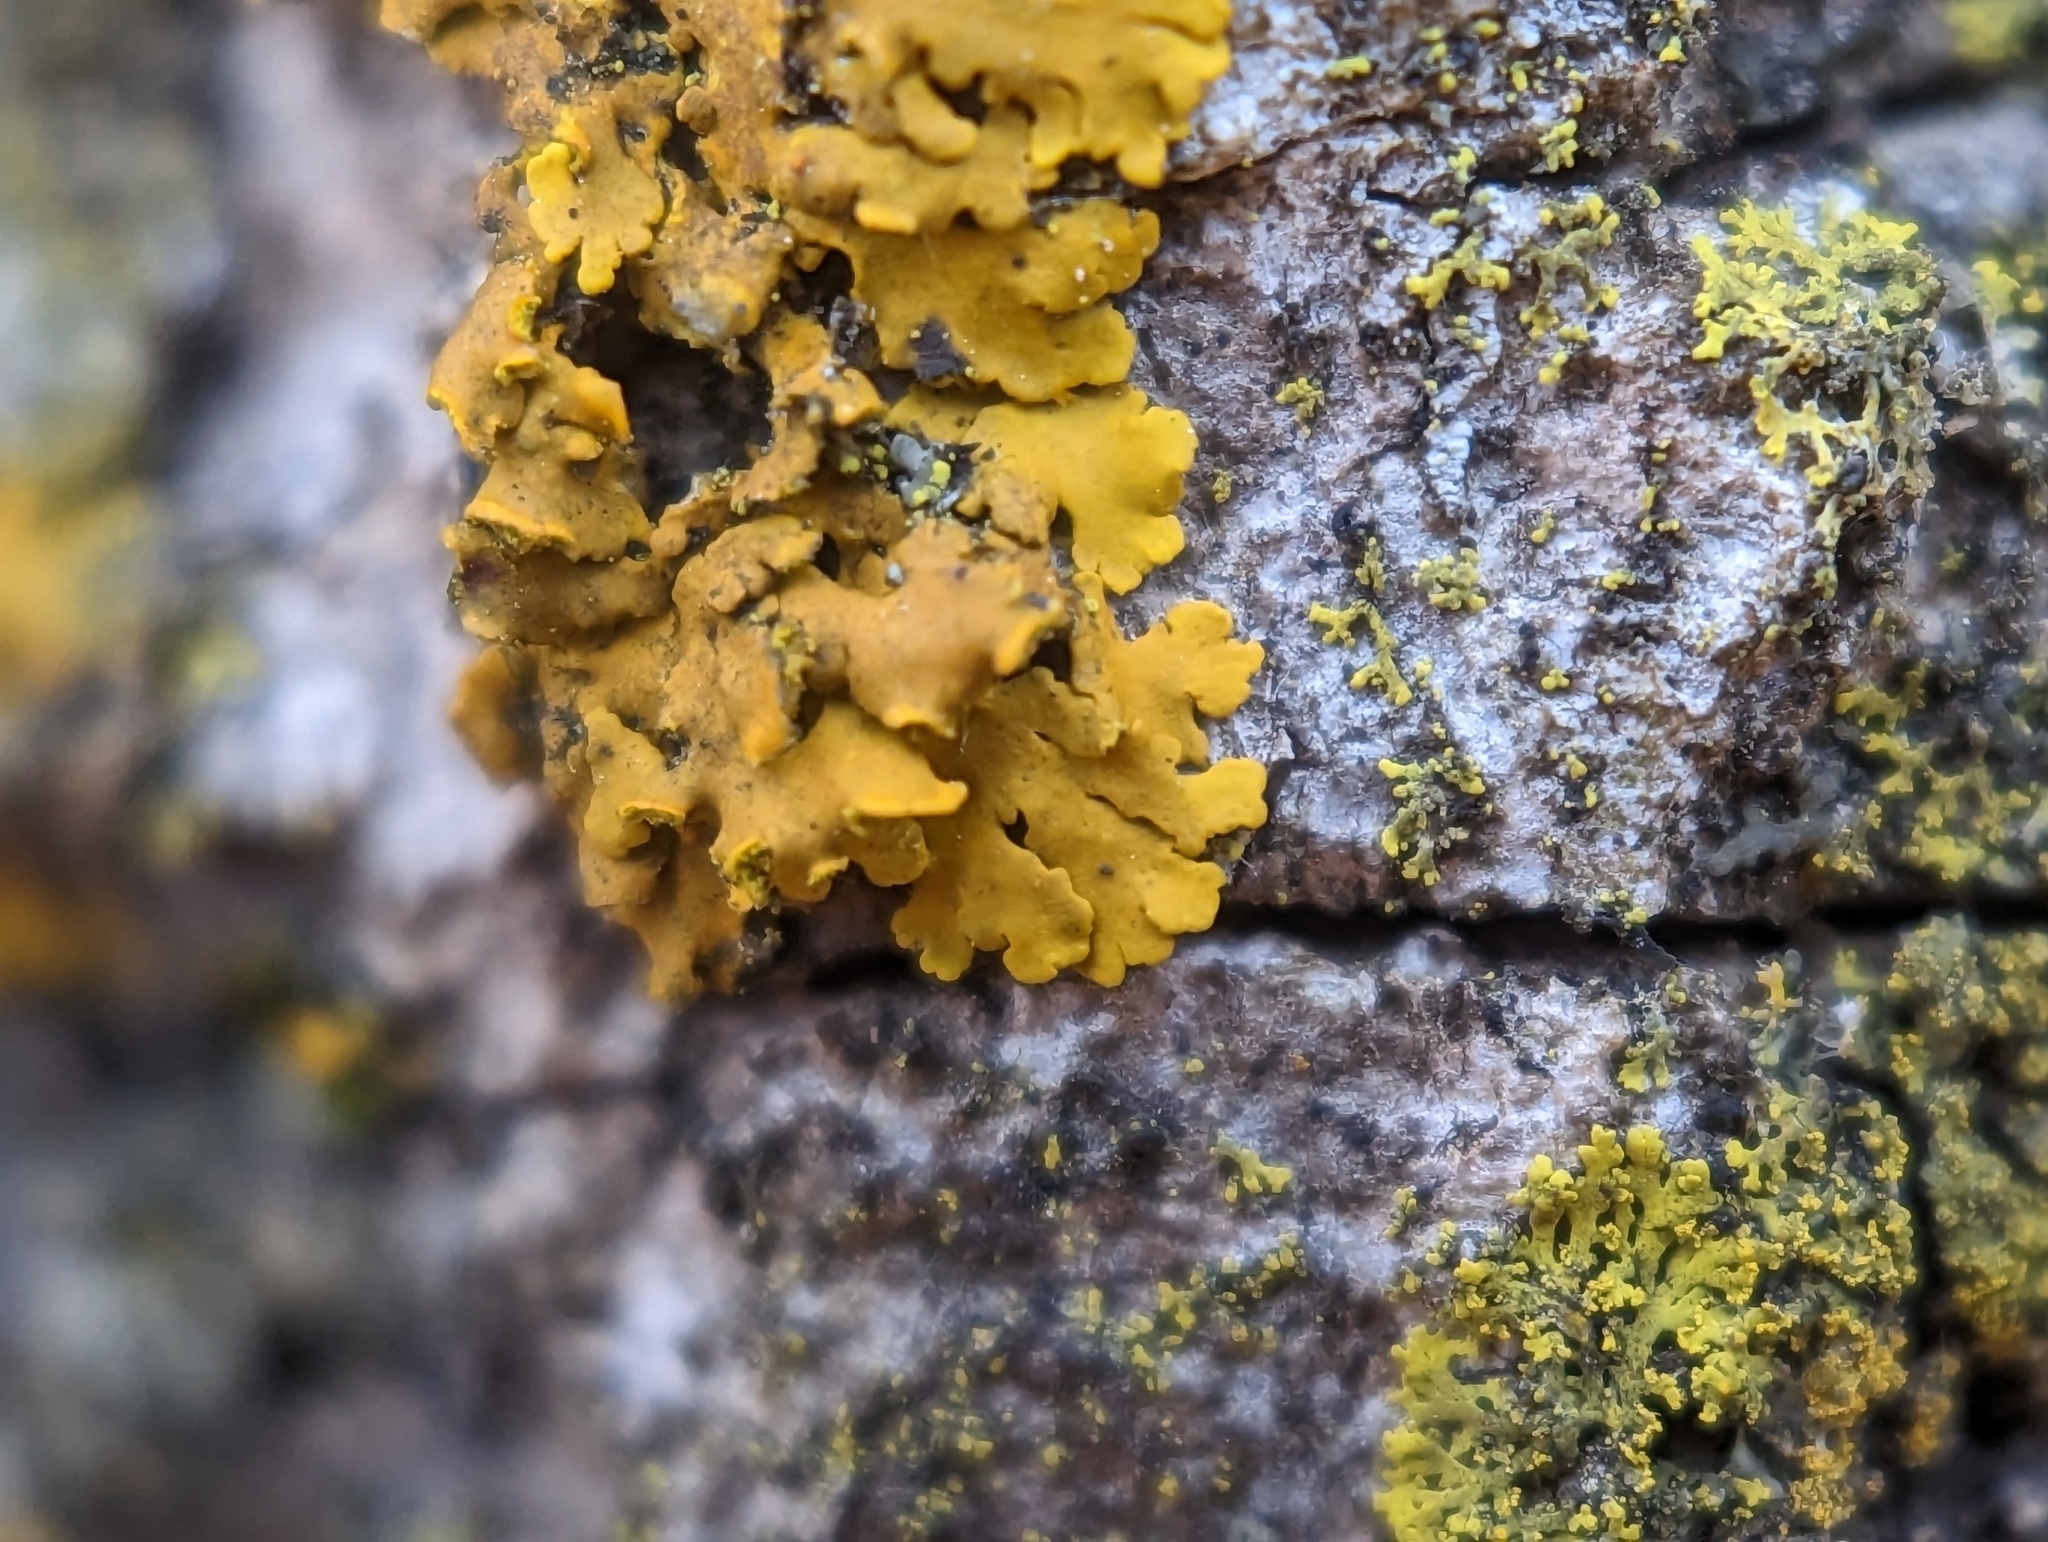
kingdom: Fungi
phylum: Ascomycota
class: Lecanoromycetes
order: Teloschistales
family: Teloschistaceae
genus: Oxneria
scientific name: Oxneria fallax
